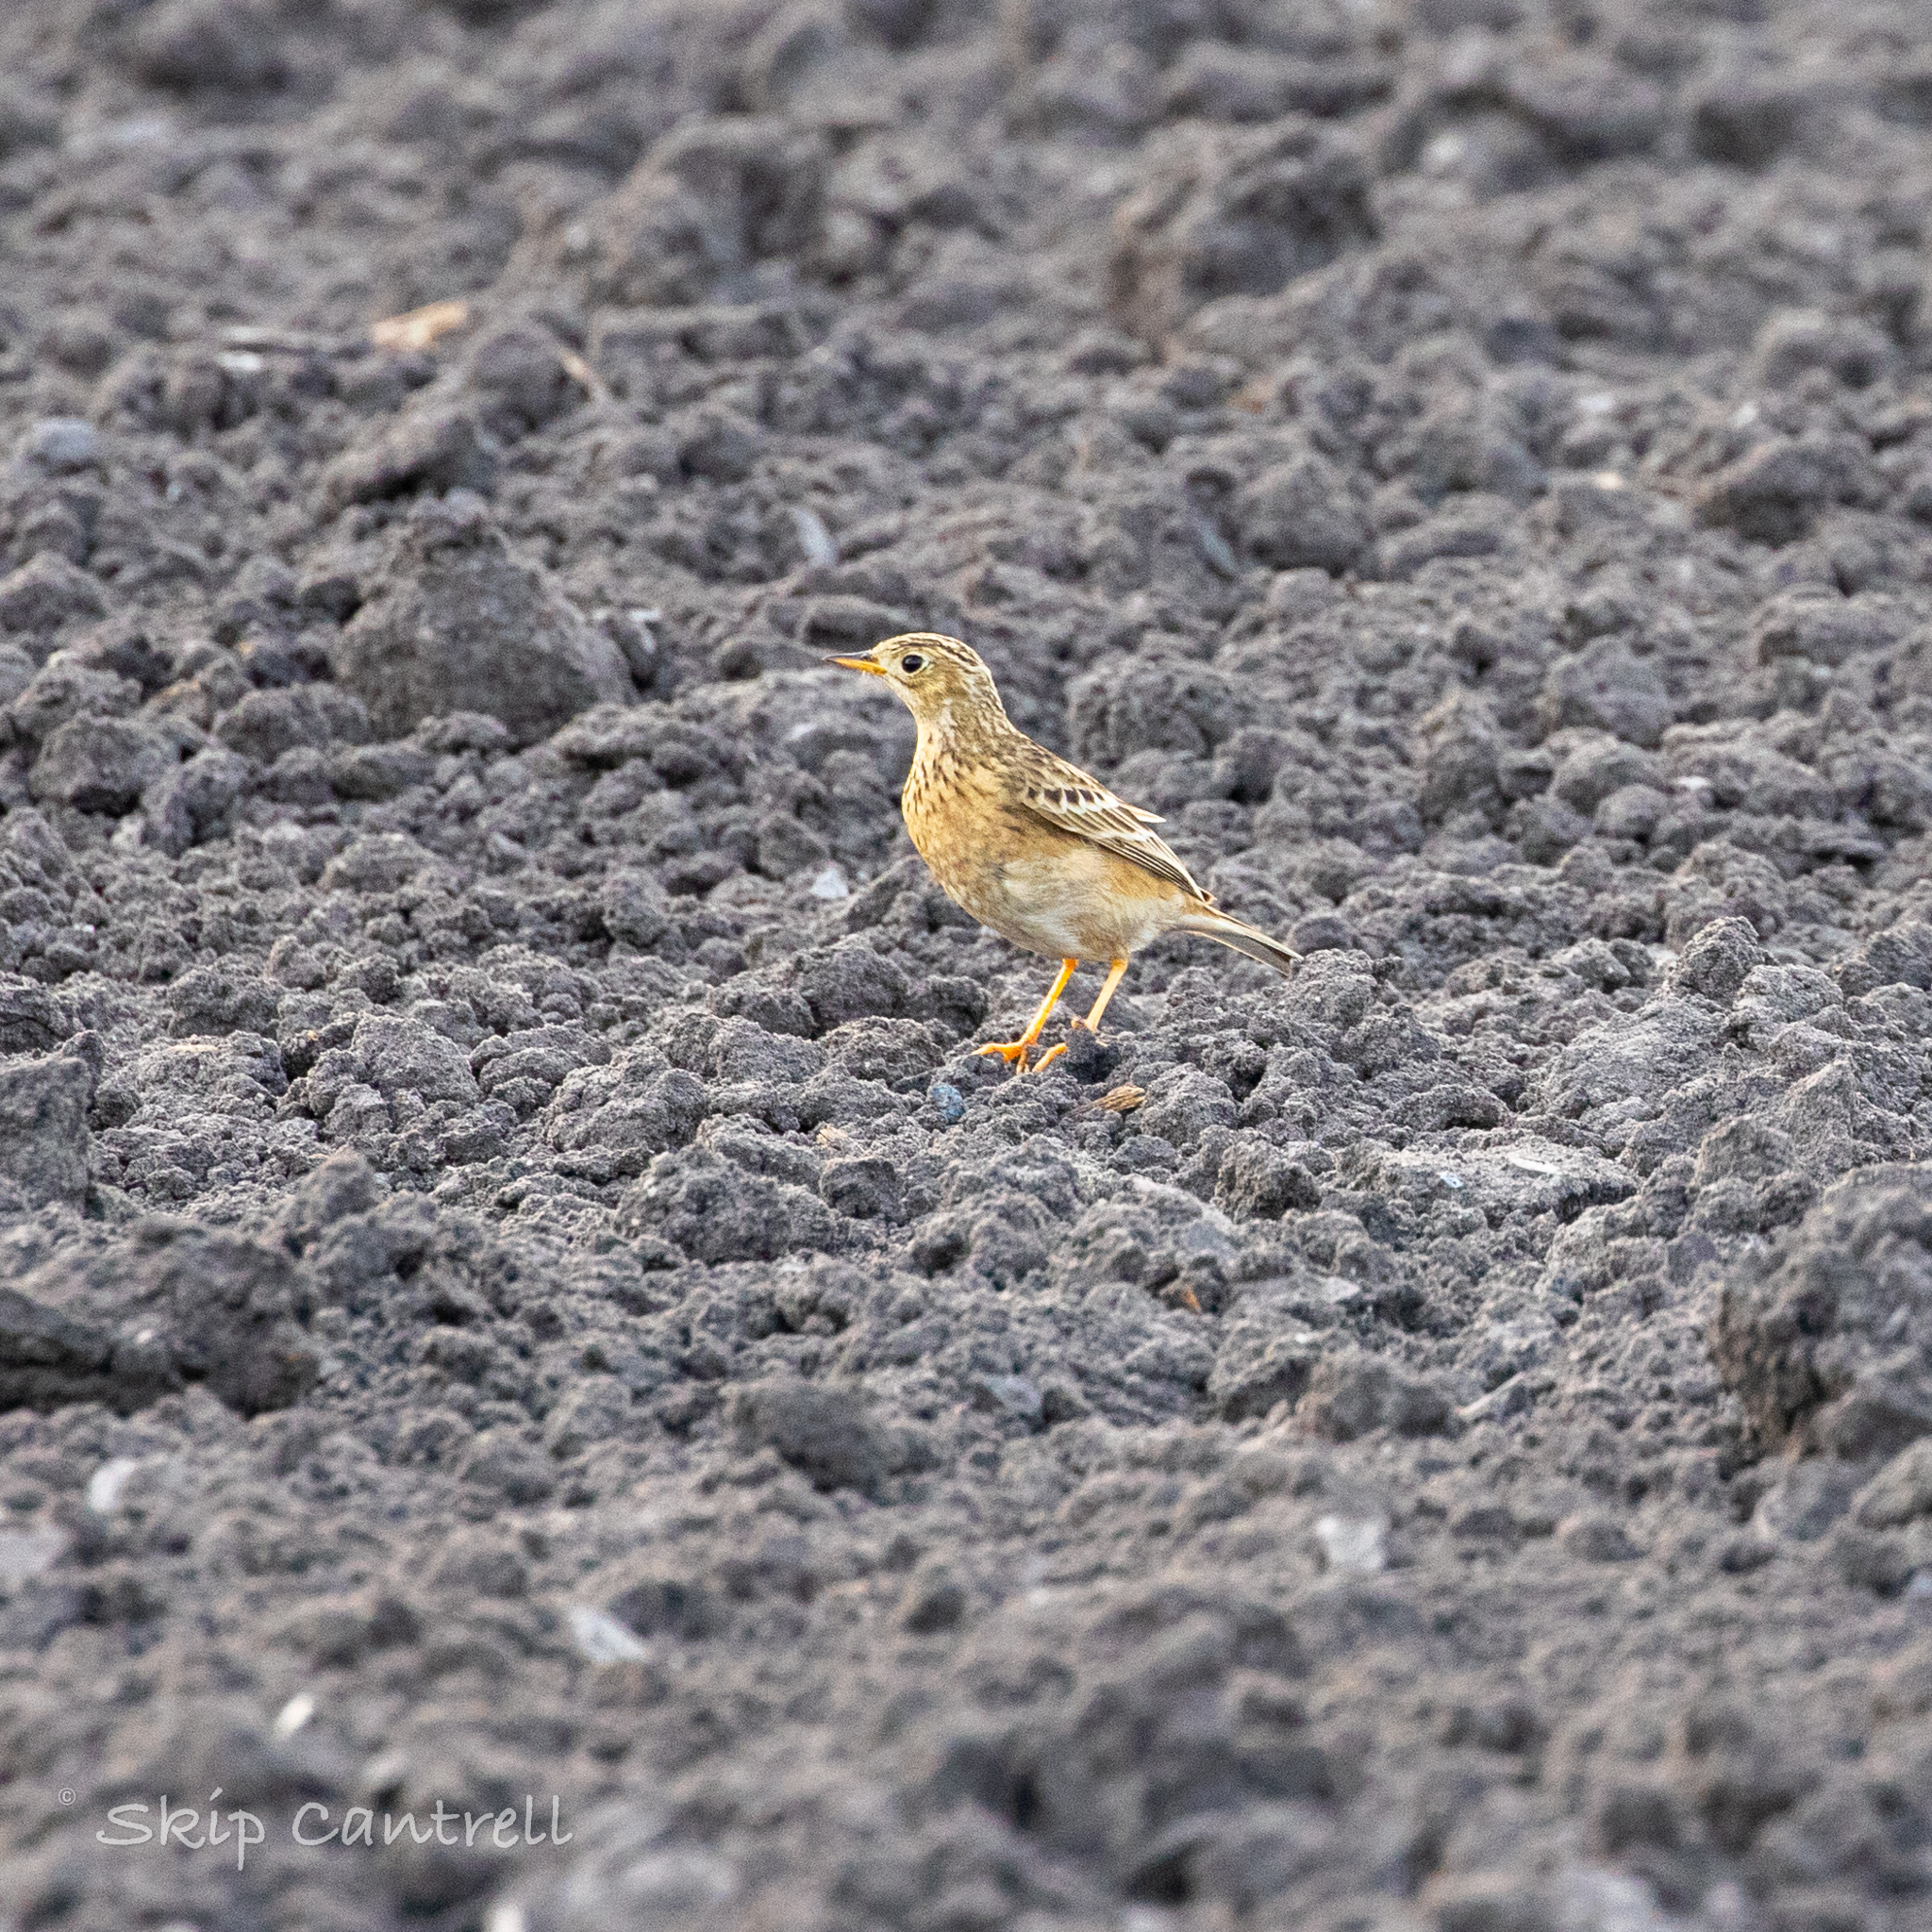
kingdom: Animalia
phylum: Chordata
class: Aves
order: Passeriformes
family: Motacillidae
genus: Anthus
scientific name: Anthus spragueii
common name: Sprague's pipit
